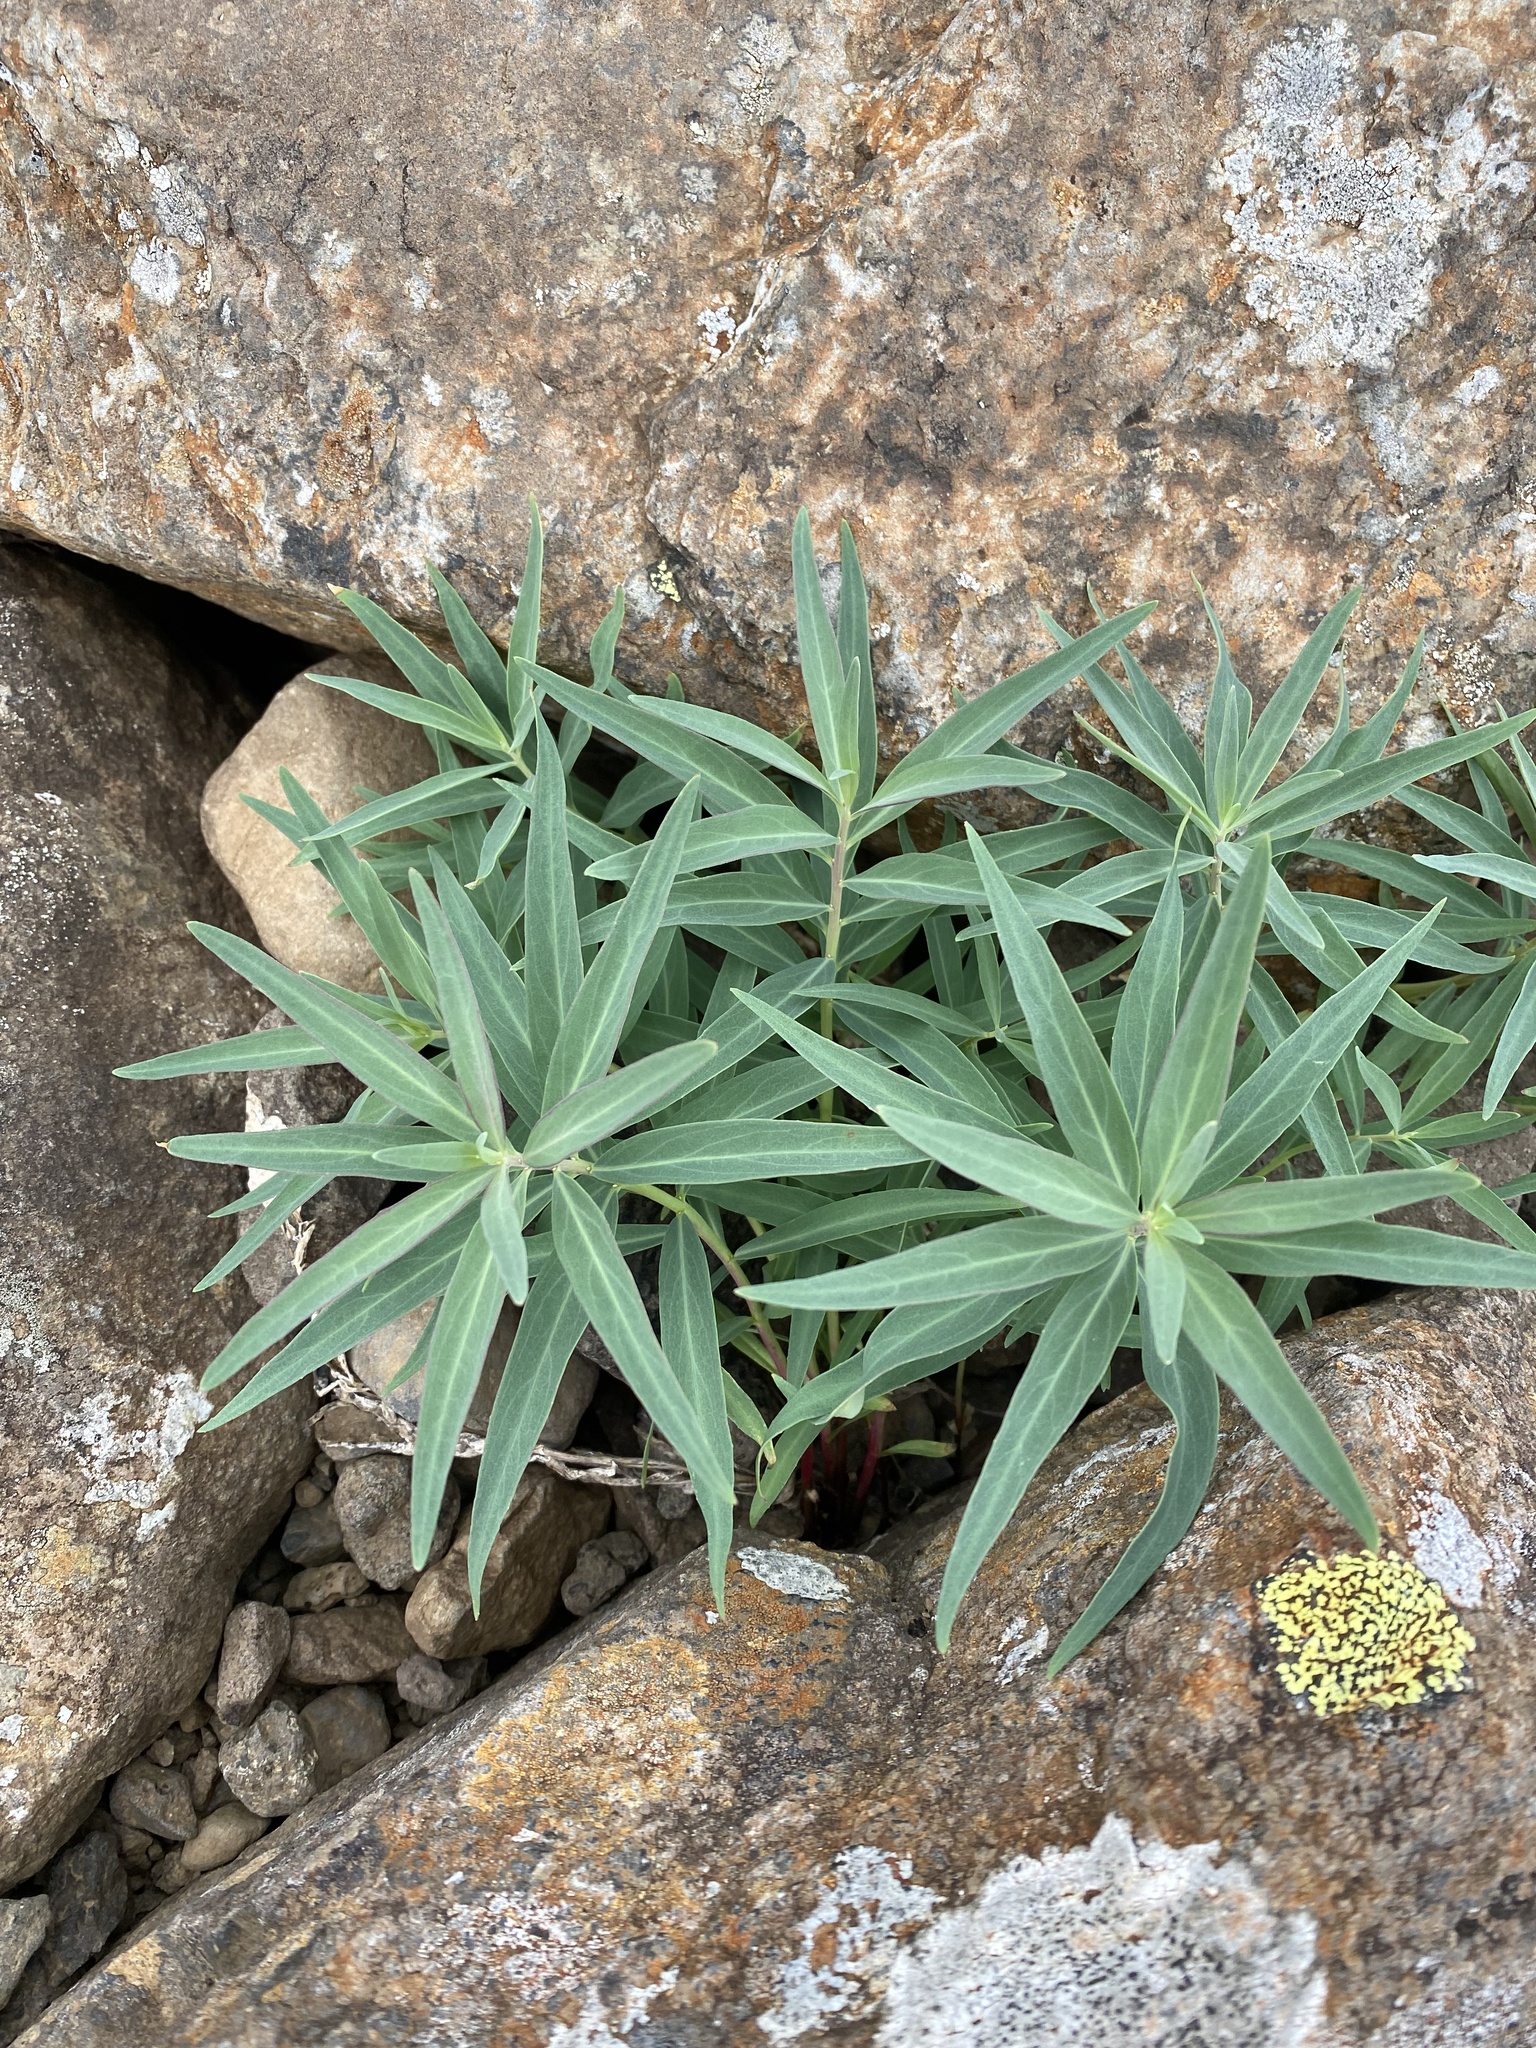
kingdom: Plantae
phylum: Tracheophyta
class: Magnoliopsida
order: Myrtales
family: Onagraceae
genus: Chamaenerion
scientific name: Chamaenerion latifolium
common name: Dwarf fireweed
